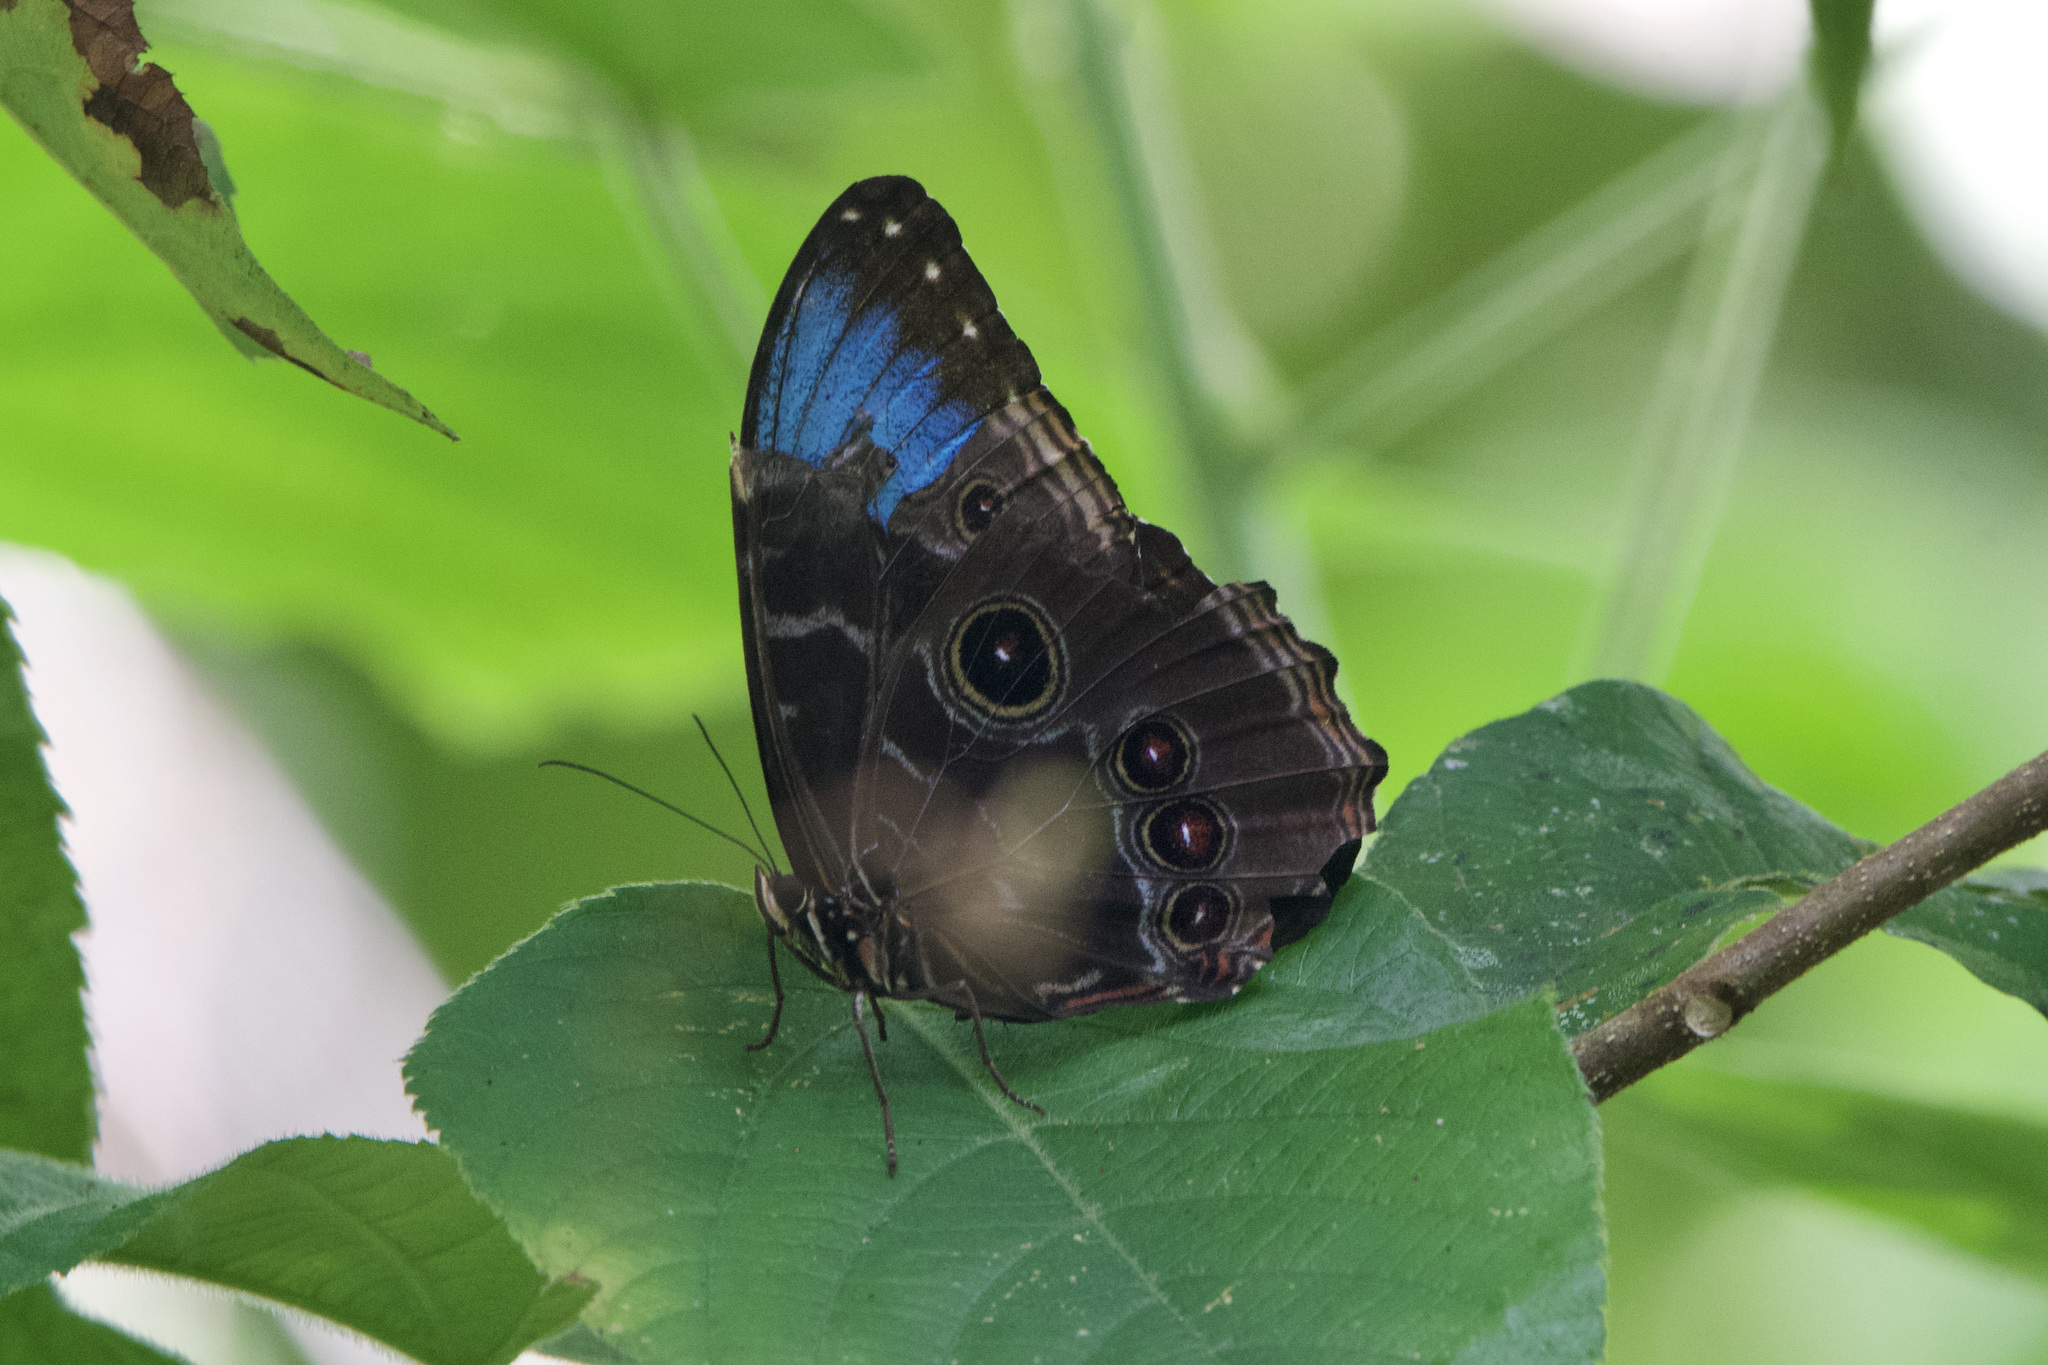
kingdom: Animalia
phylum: Arthropoda
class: Insecta
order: Lepidoptera
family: Nymphalidae
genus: Morpho
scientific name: Morpho helenor
